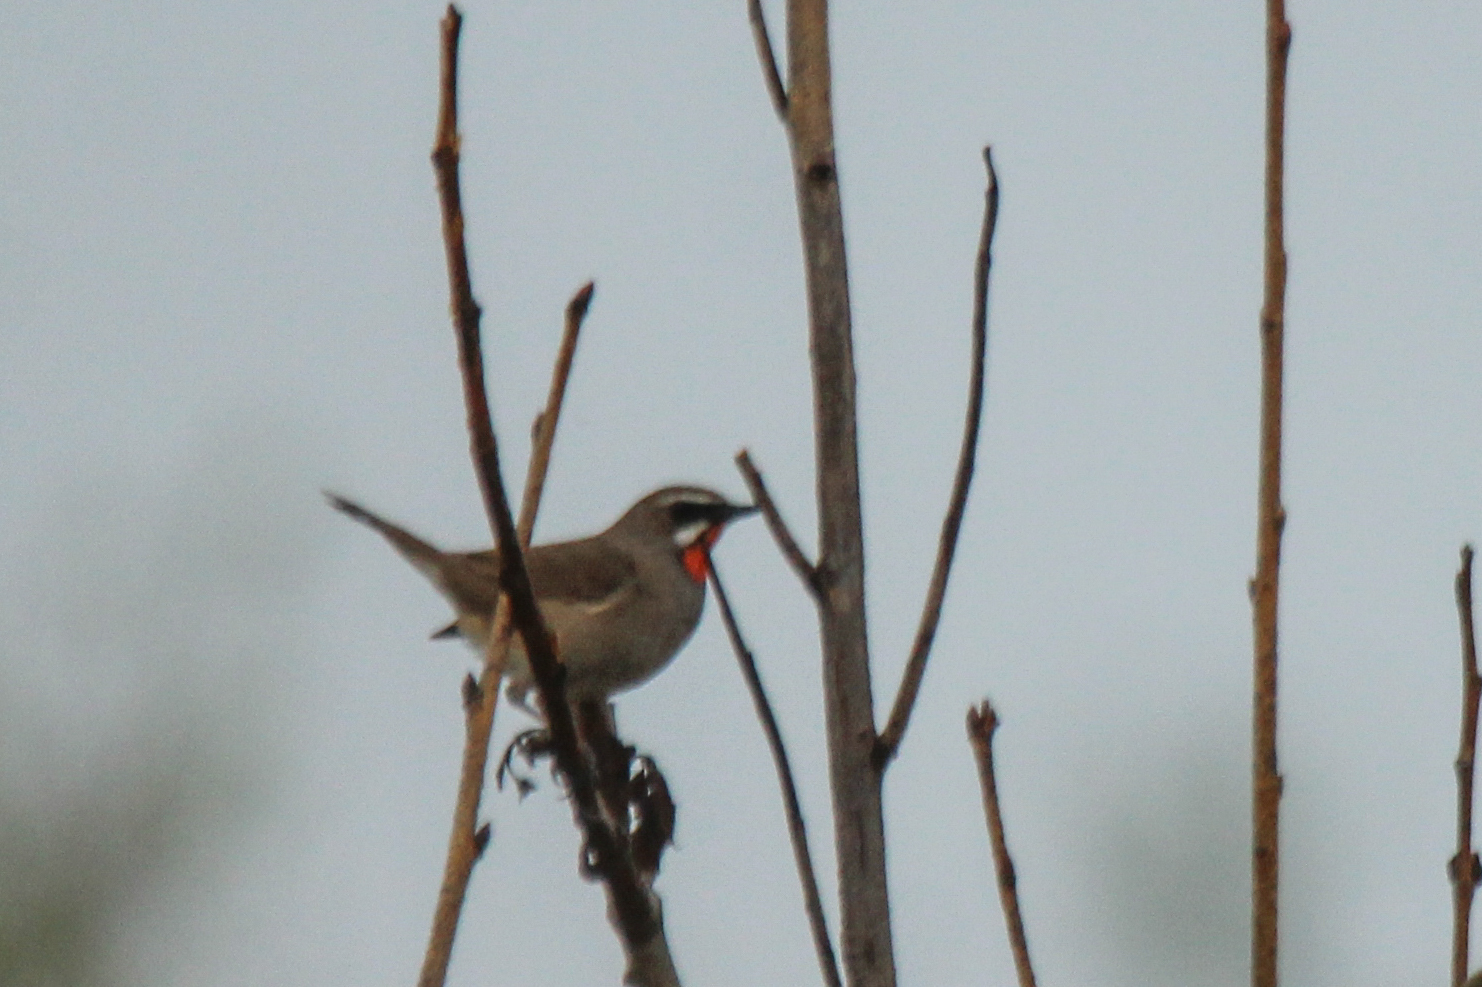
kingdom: Animalia
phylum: Chordata
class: Aves
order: Passeriformes
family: Muscicapidae
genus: Luscinia
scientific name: Luscinia calliope
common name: Siberian rubythroat
